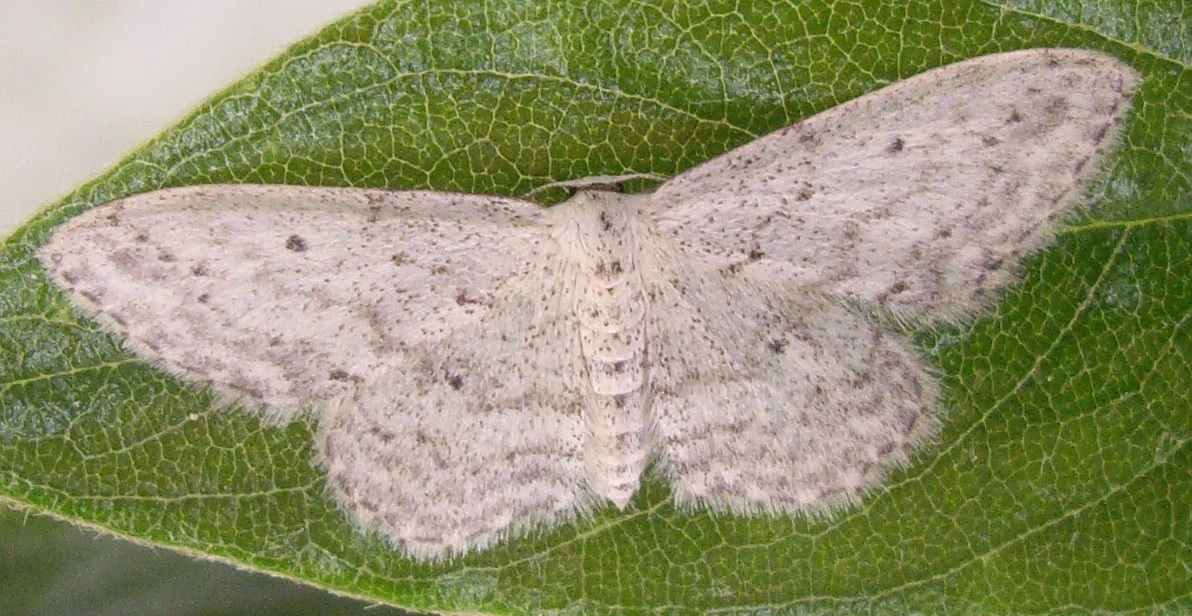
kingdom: Animalia
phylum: Arthropoda
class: Insecta
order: Lepidoptera
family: Geometridae
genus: Idaea
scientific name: Idaea seriata
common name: Small dusty wave
